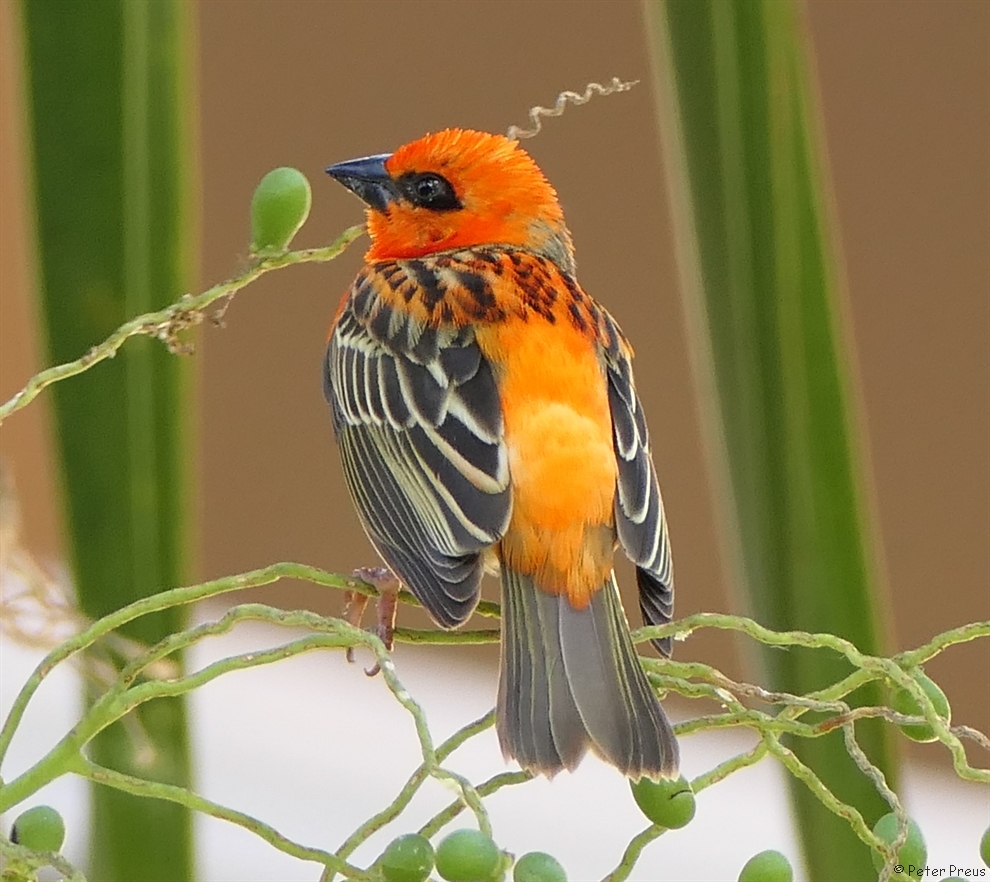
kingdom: Animalia
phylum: Chordata
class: Aves
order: Passeriformes
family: Ploceidae
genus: Foudia
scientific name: Foudia madagascariensis
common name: Red fody
